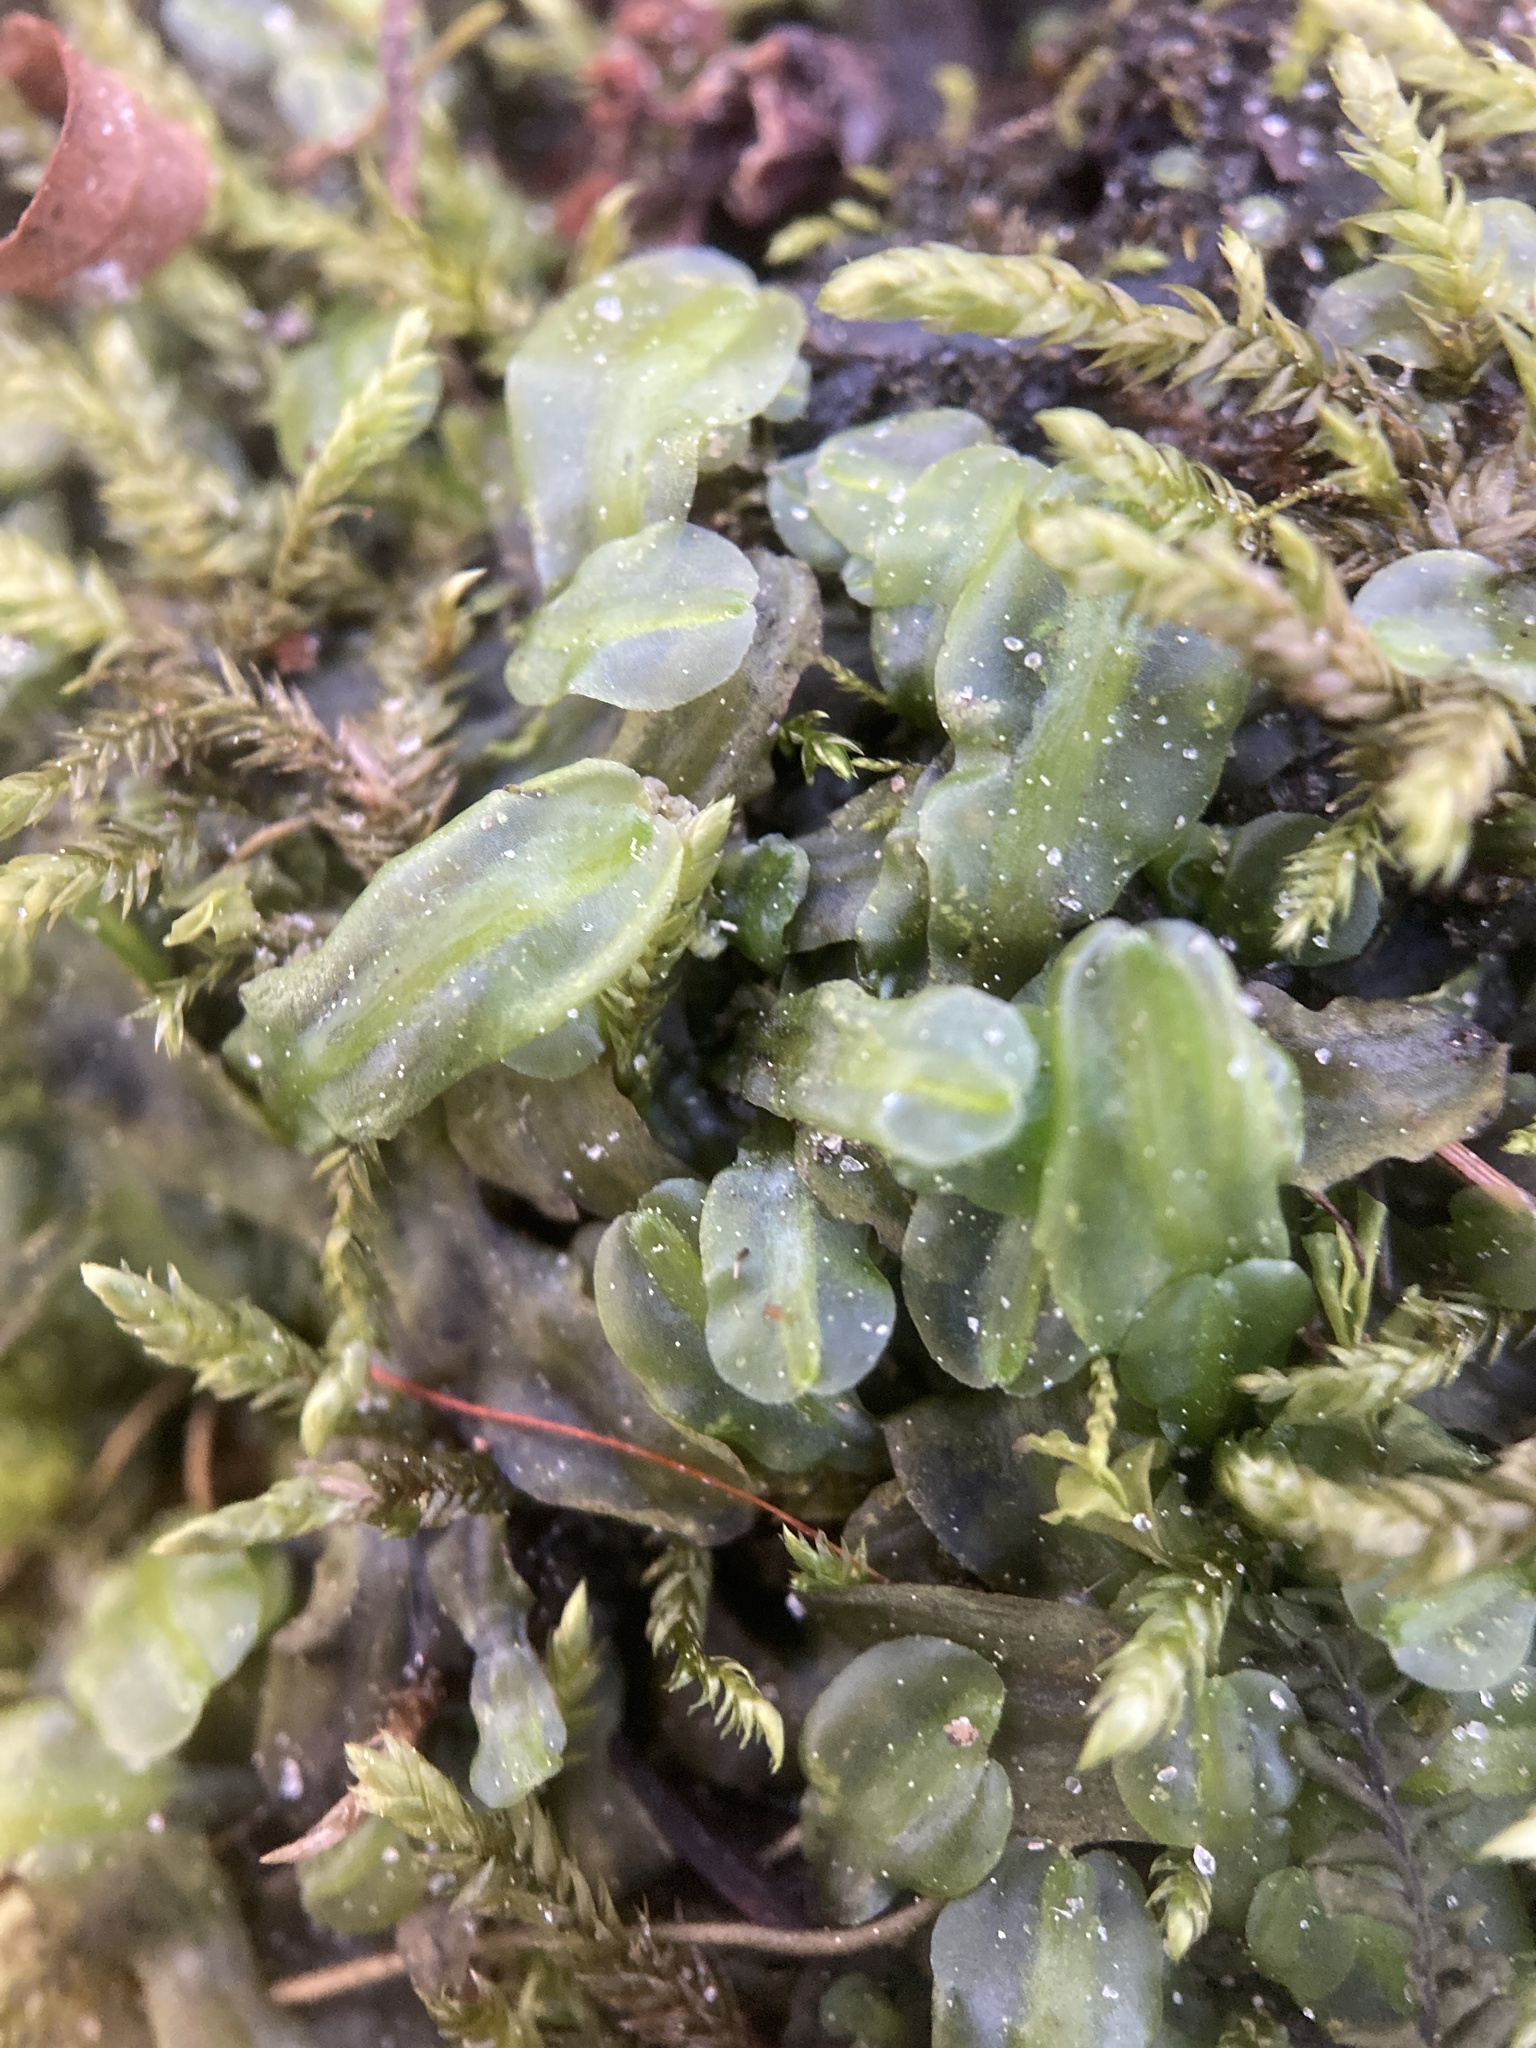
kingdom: Plantae
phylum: Marchantiophyta
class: Jungermanniopsida
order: Pallaviciniales
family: Pallaviciniaceae
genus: Pallavicinia
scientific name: Pallavicinia lyellii
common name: Veilwort
